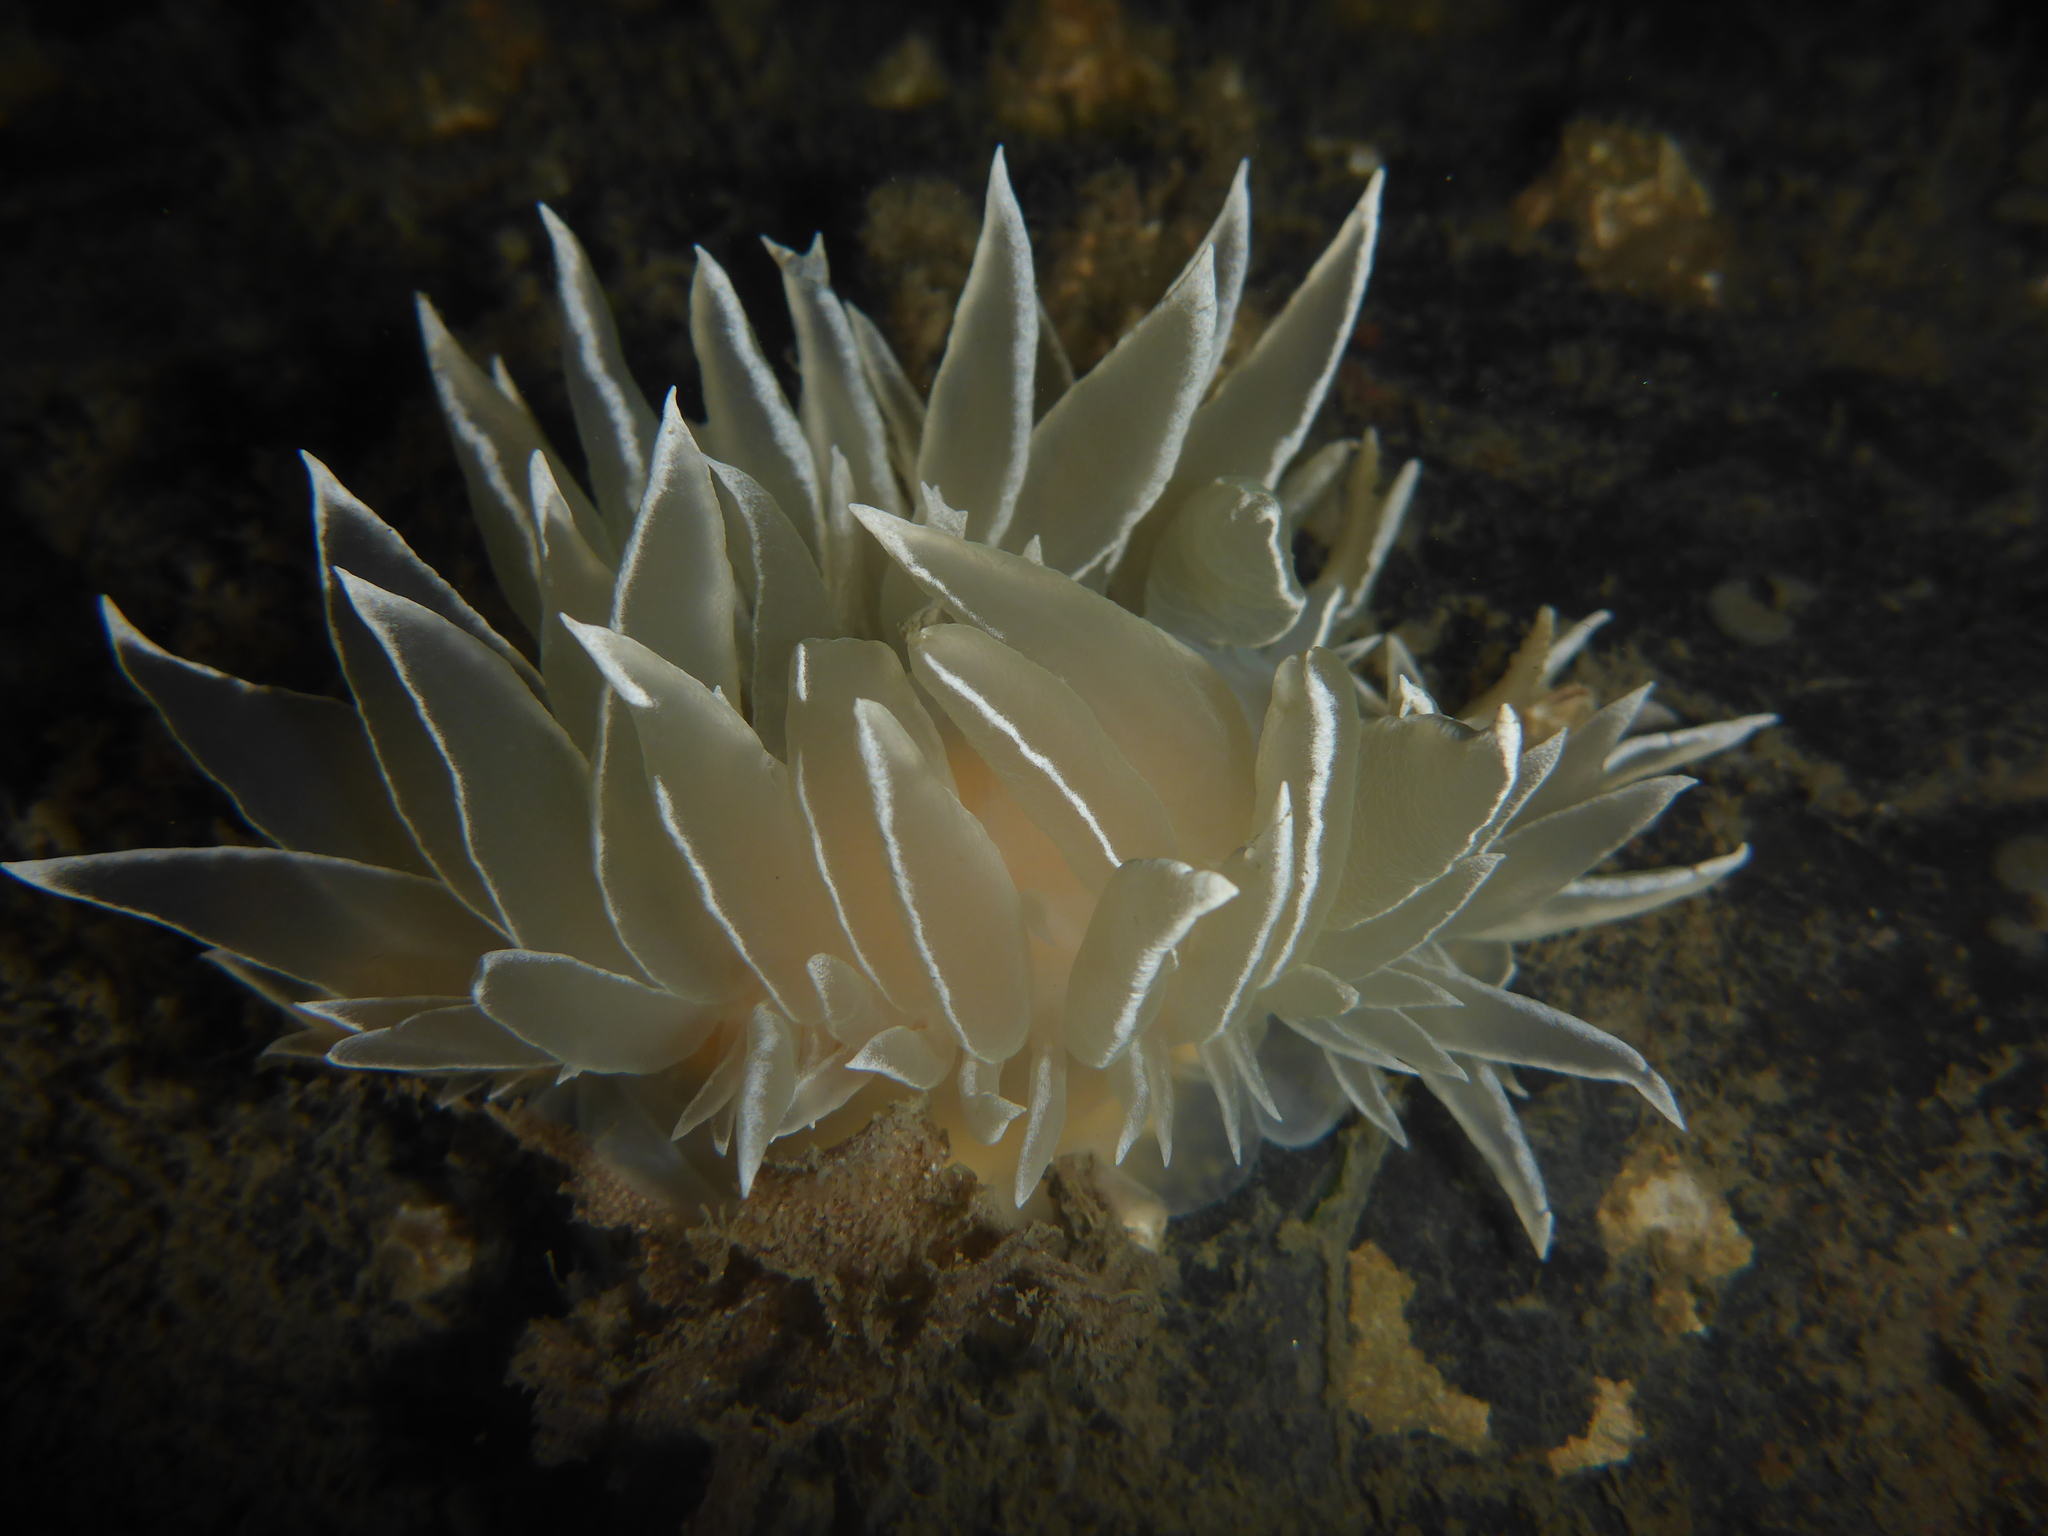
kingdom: Animalia
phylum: Mollusca
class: Gastropoda
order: Nudibranchia
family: Dironidae
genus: Dirona
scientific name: Dirona albolineata
